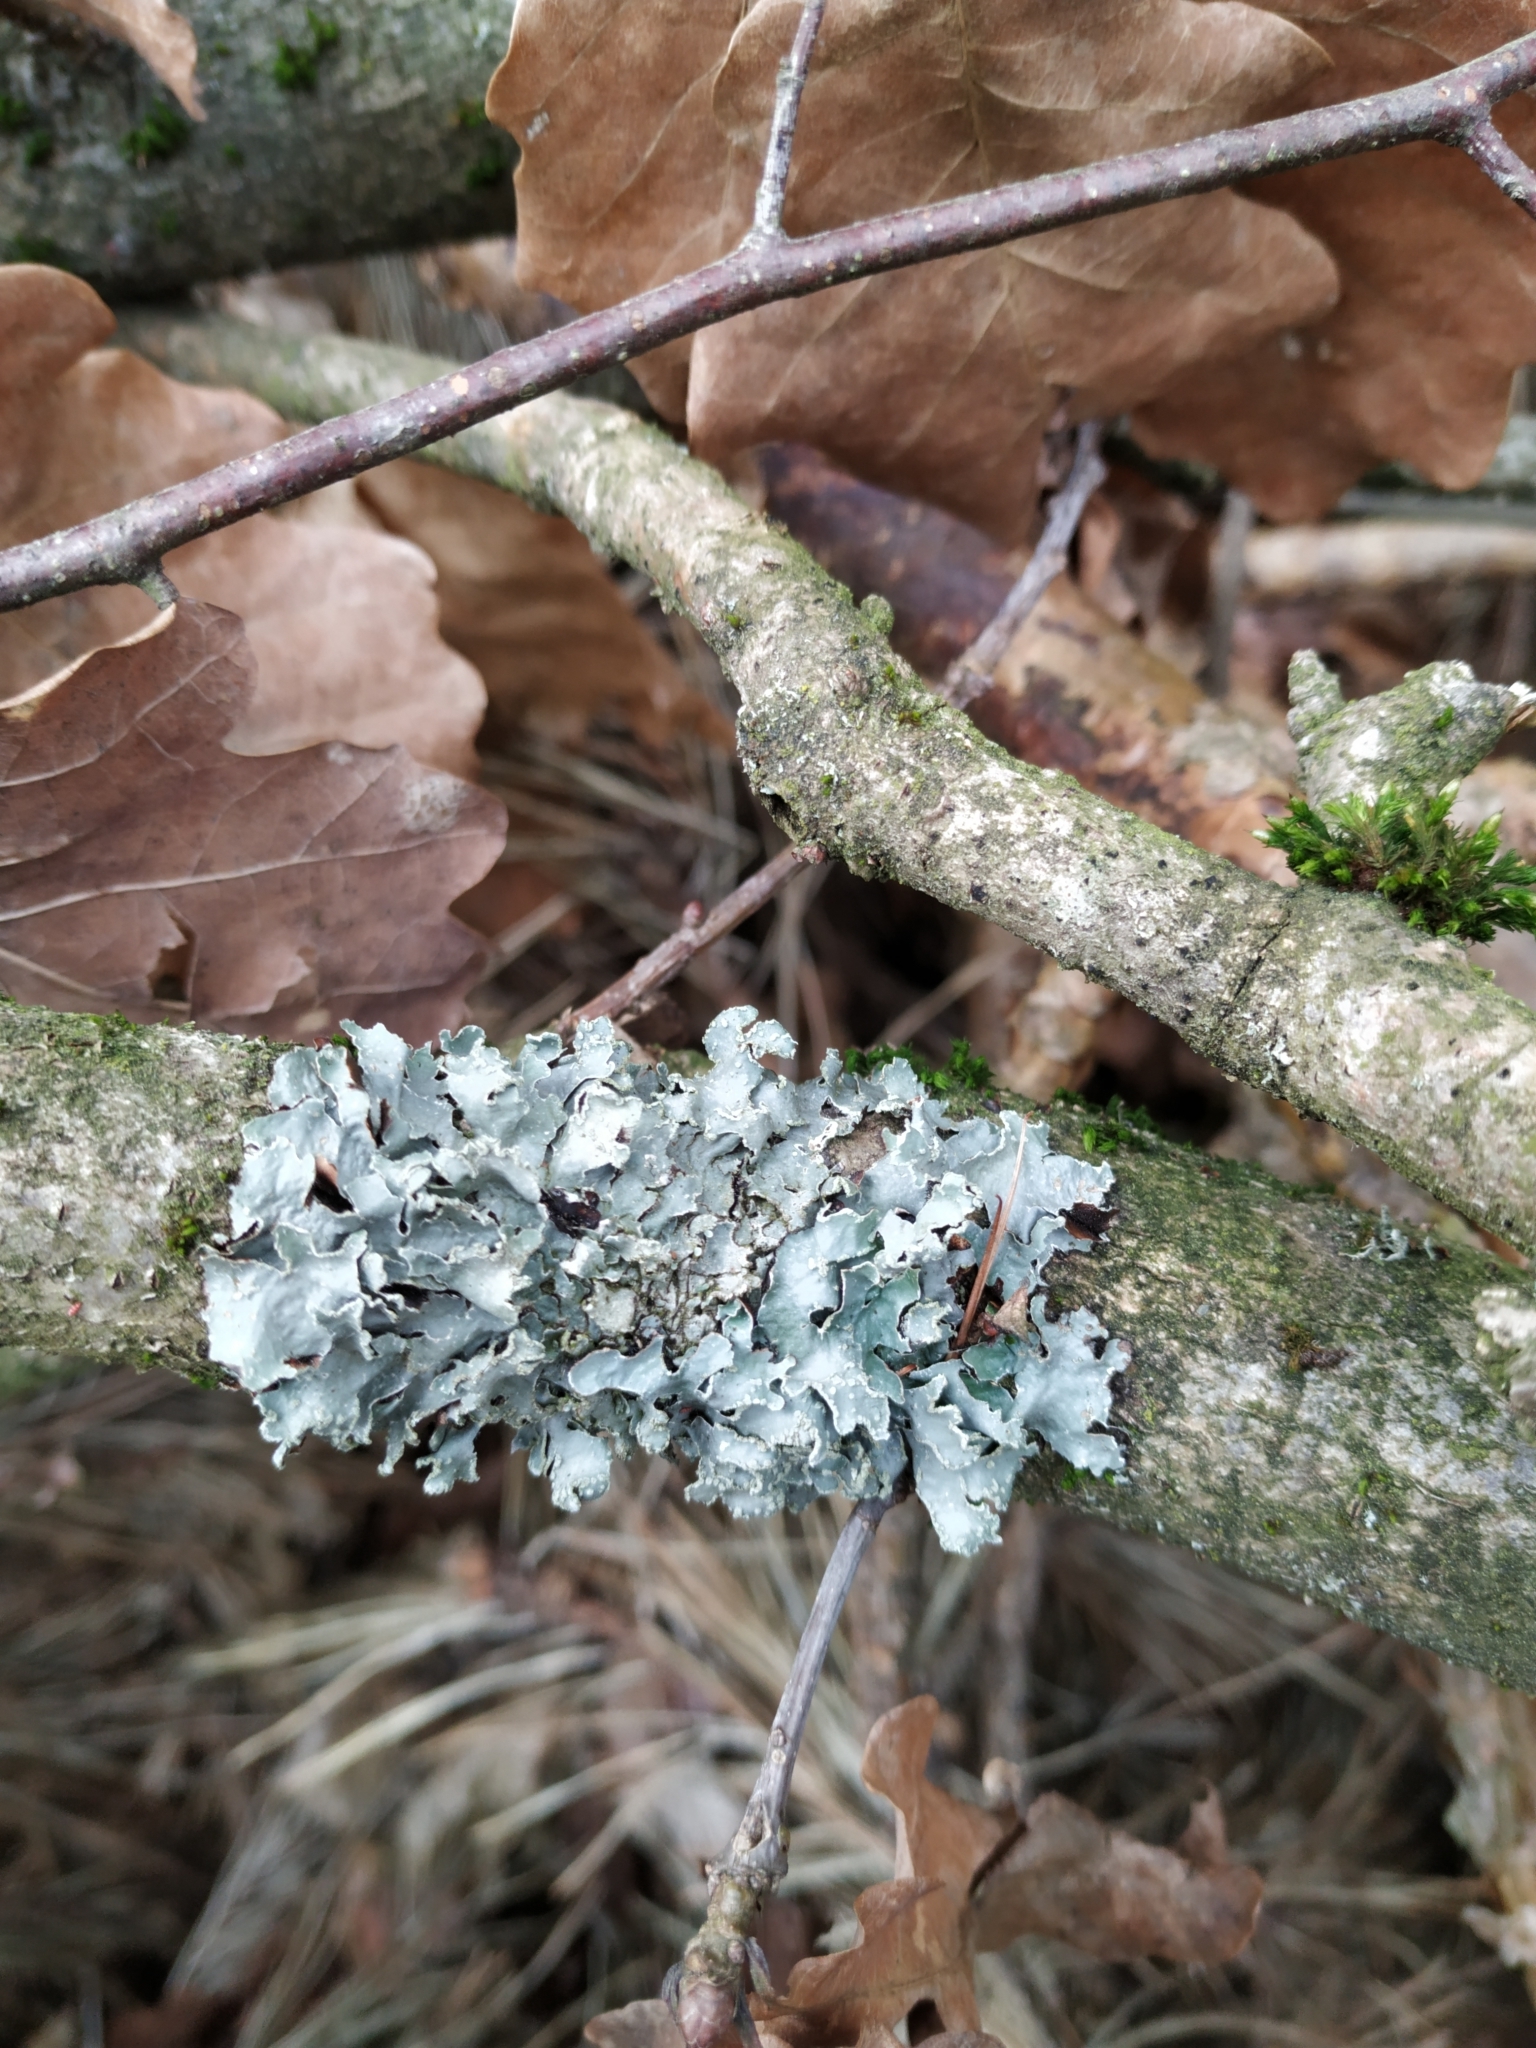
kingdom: Fungi
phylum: Ascomycota
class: Lecanoromycetes
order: Lecanorales
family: Parmeliaceae
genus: Parmelia
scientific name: Parmelia sulcata
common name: Netted shield lichen
